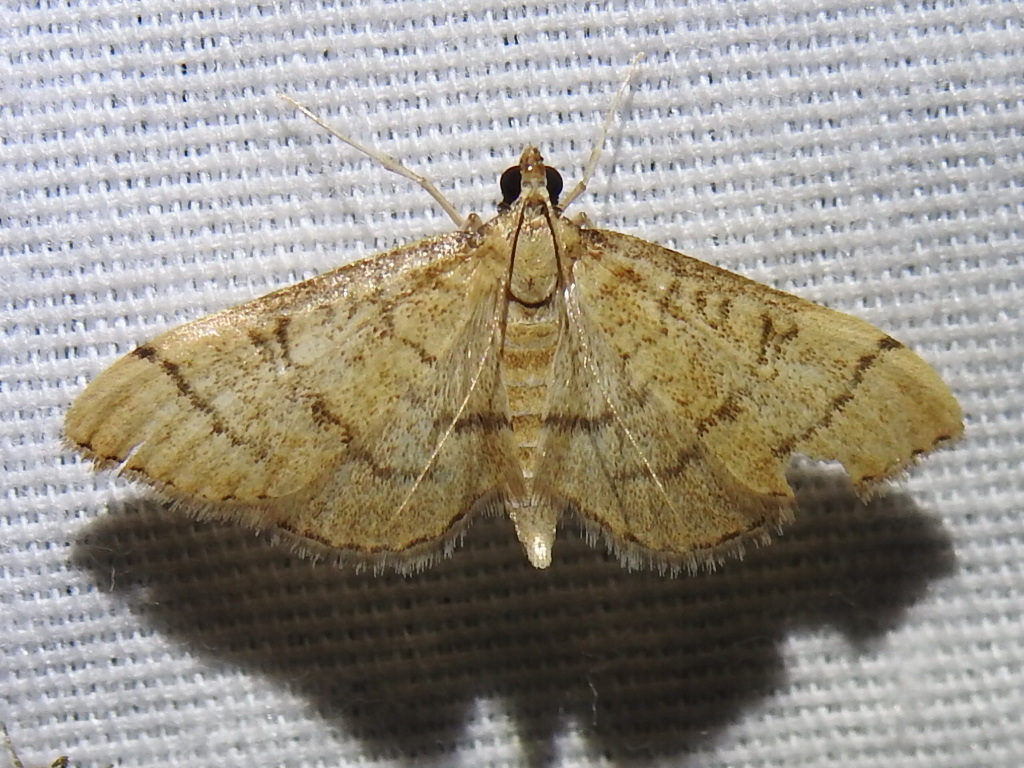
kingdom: Animalia
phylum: Arthropoda
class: Insecta
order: Lepidoptera
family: Crambidae
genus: Lamprosema
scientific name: Lamprosema Blepharomastix ranalis
